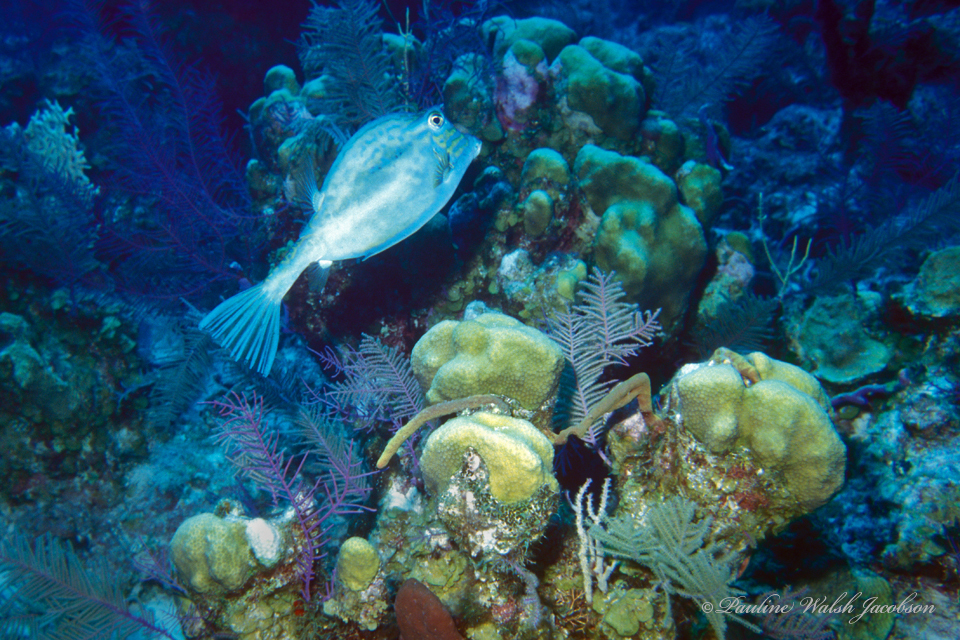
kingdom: Animalia
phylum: Chordata
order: Tetraodontiformes
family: Ostraciidae
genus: Acanthostracion
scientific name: Acanthostracion quadricornis
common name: Scrawled cowfish
